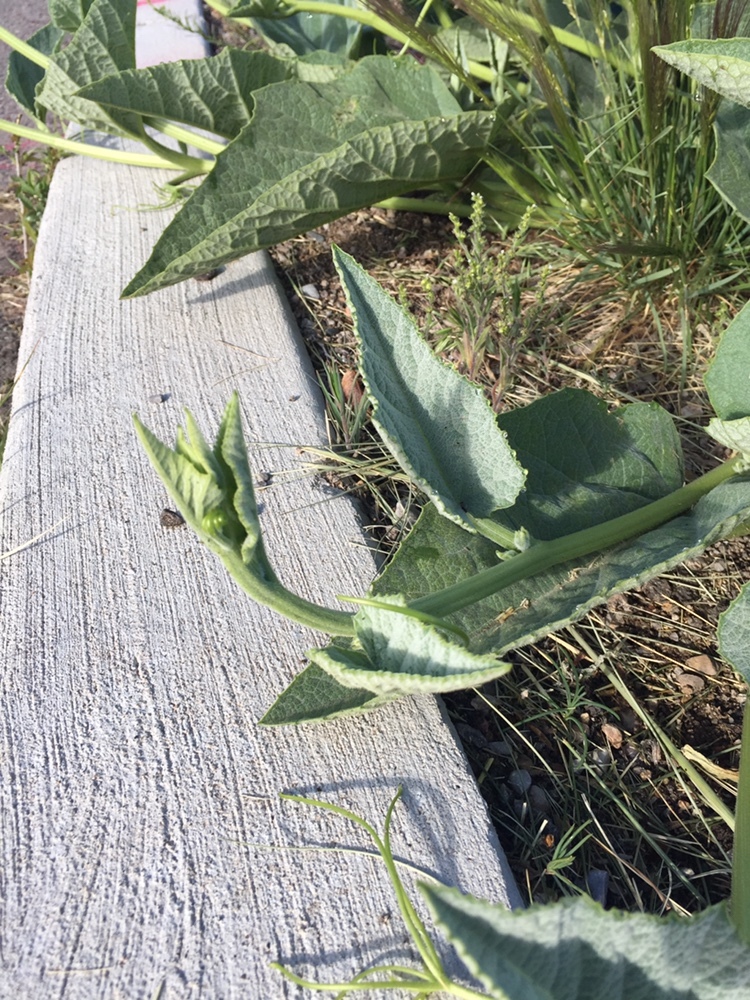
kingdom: Plantae
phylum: Tracheophyta
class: Magnoliopsida
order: Cucurbitales
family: Cucurbitaceae
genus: Cucurbita
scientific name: Cucurbita foetidissima
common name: Buffalo gourd
